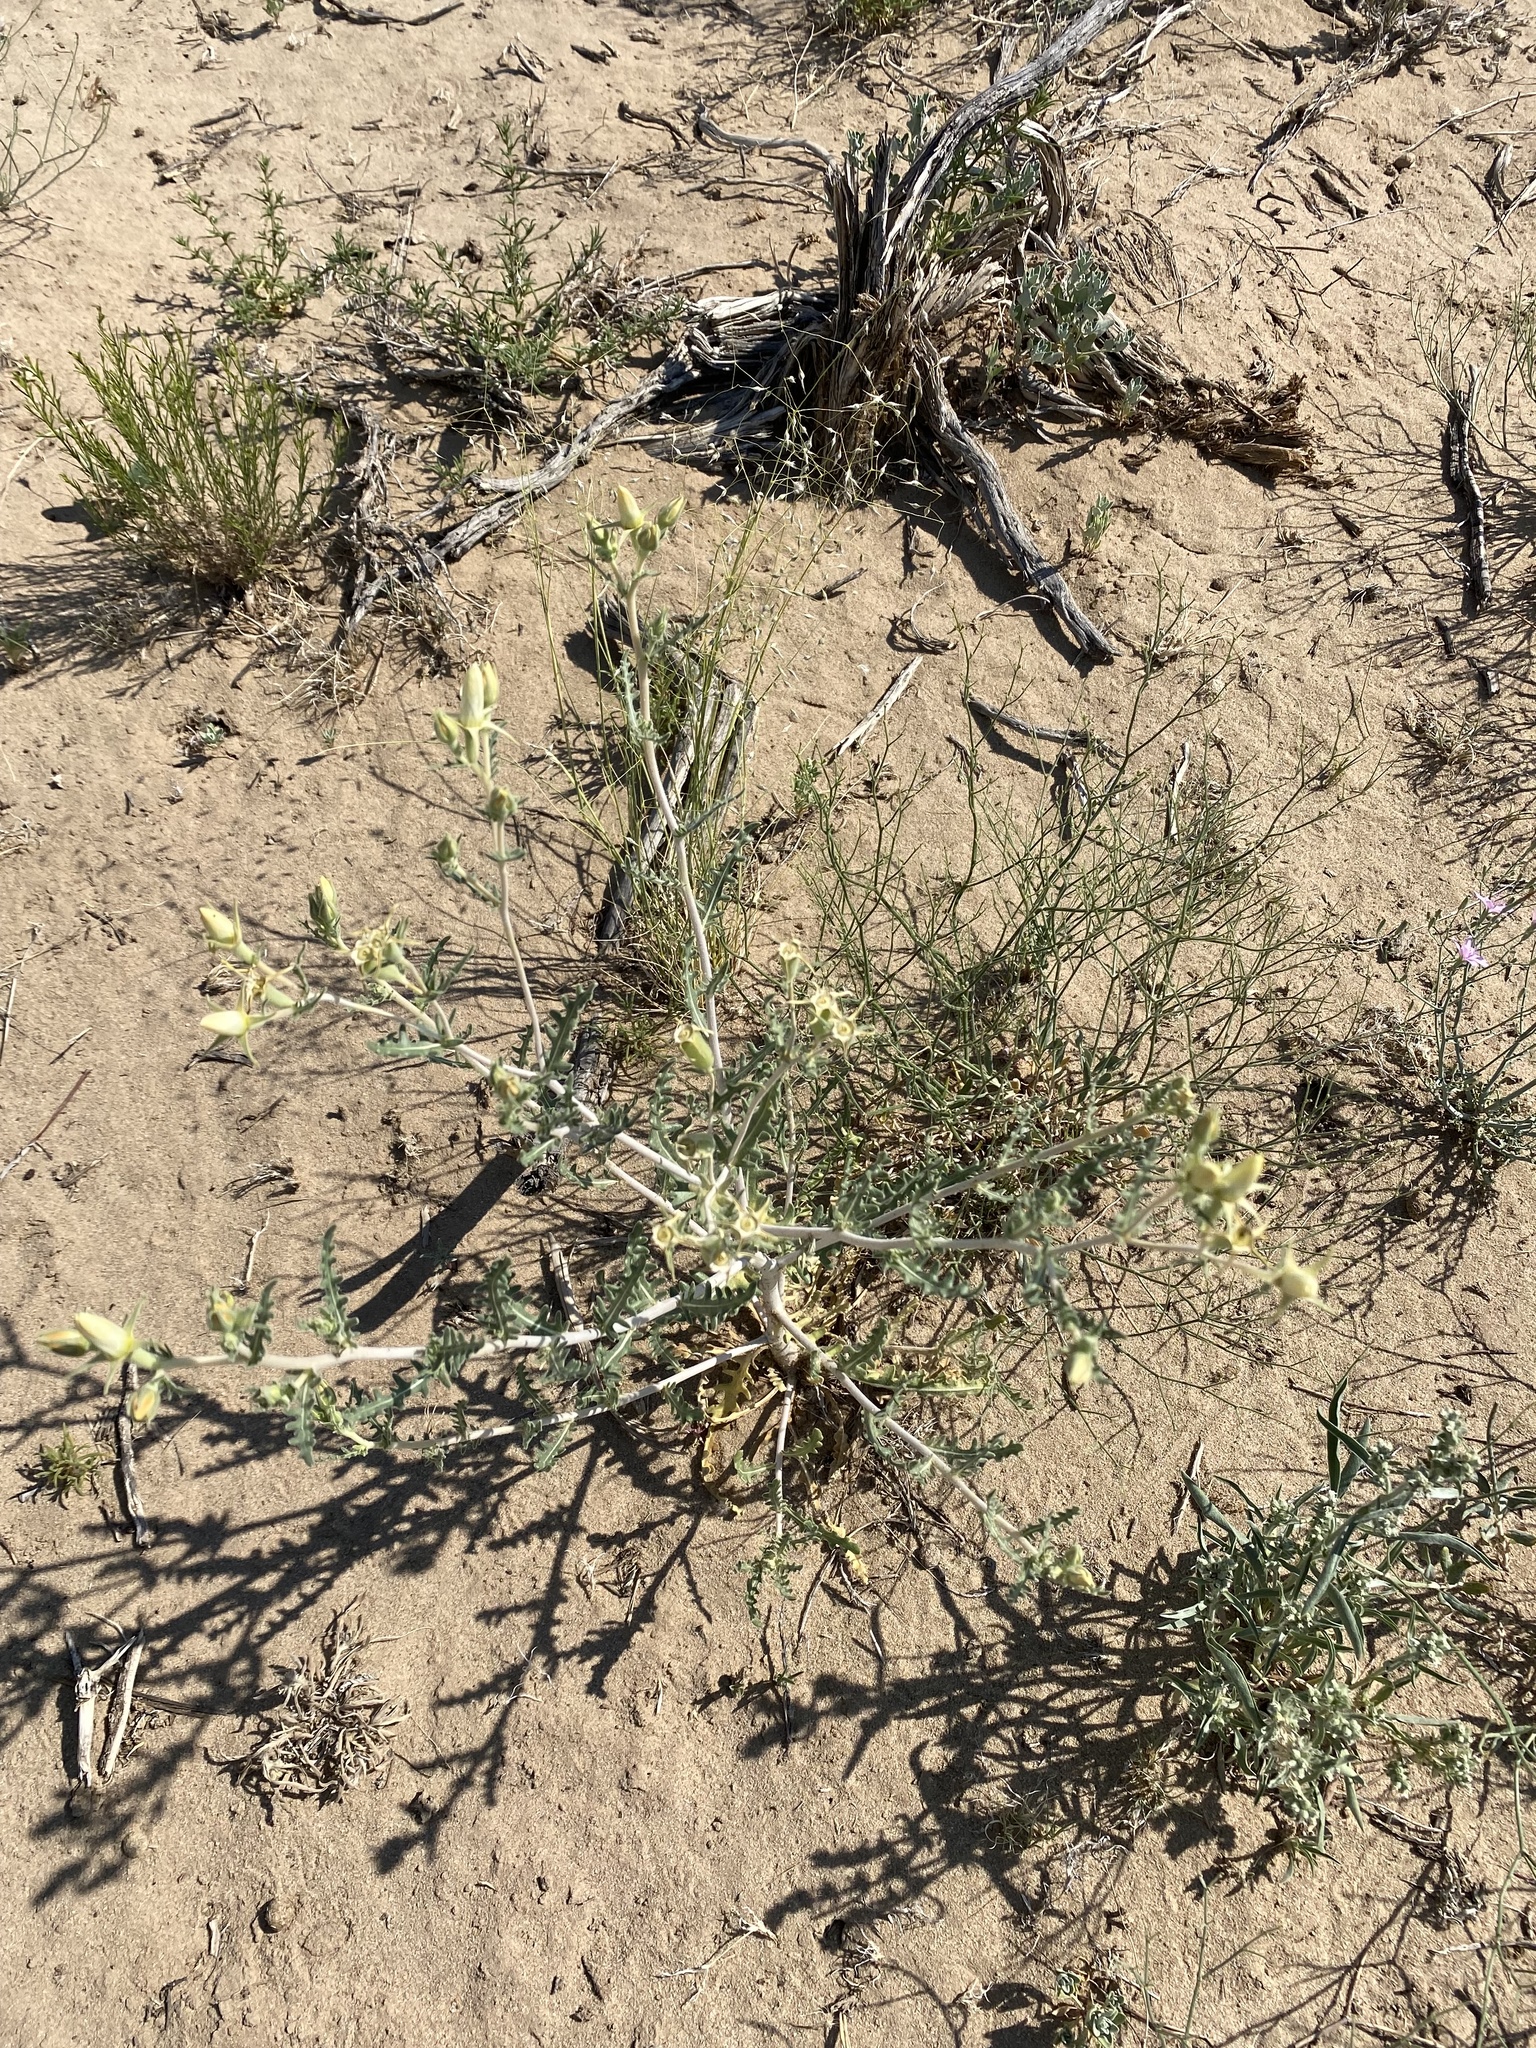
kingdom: Plantae
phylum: Tracheophyta
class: Magnoliopsida
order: Cornales
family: Loasaceae
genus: Mentzelia
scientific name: Mentzelia multiflora
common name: Adonis blazingstar
